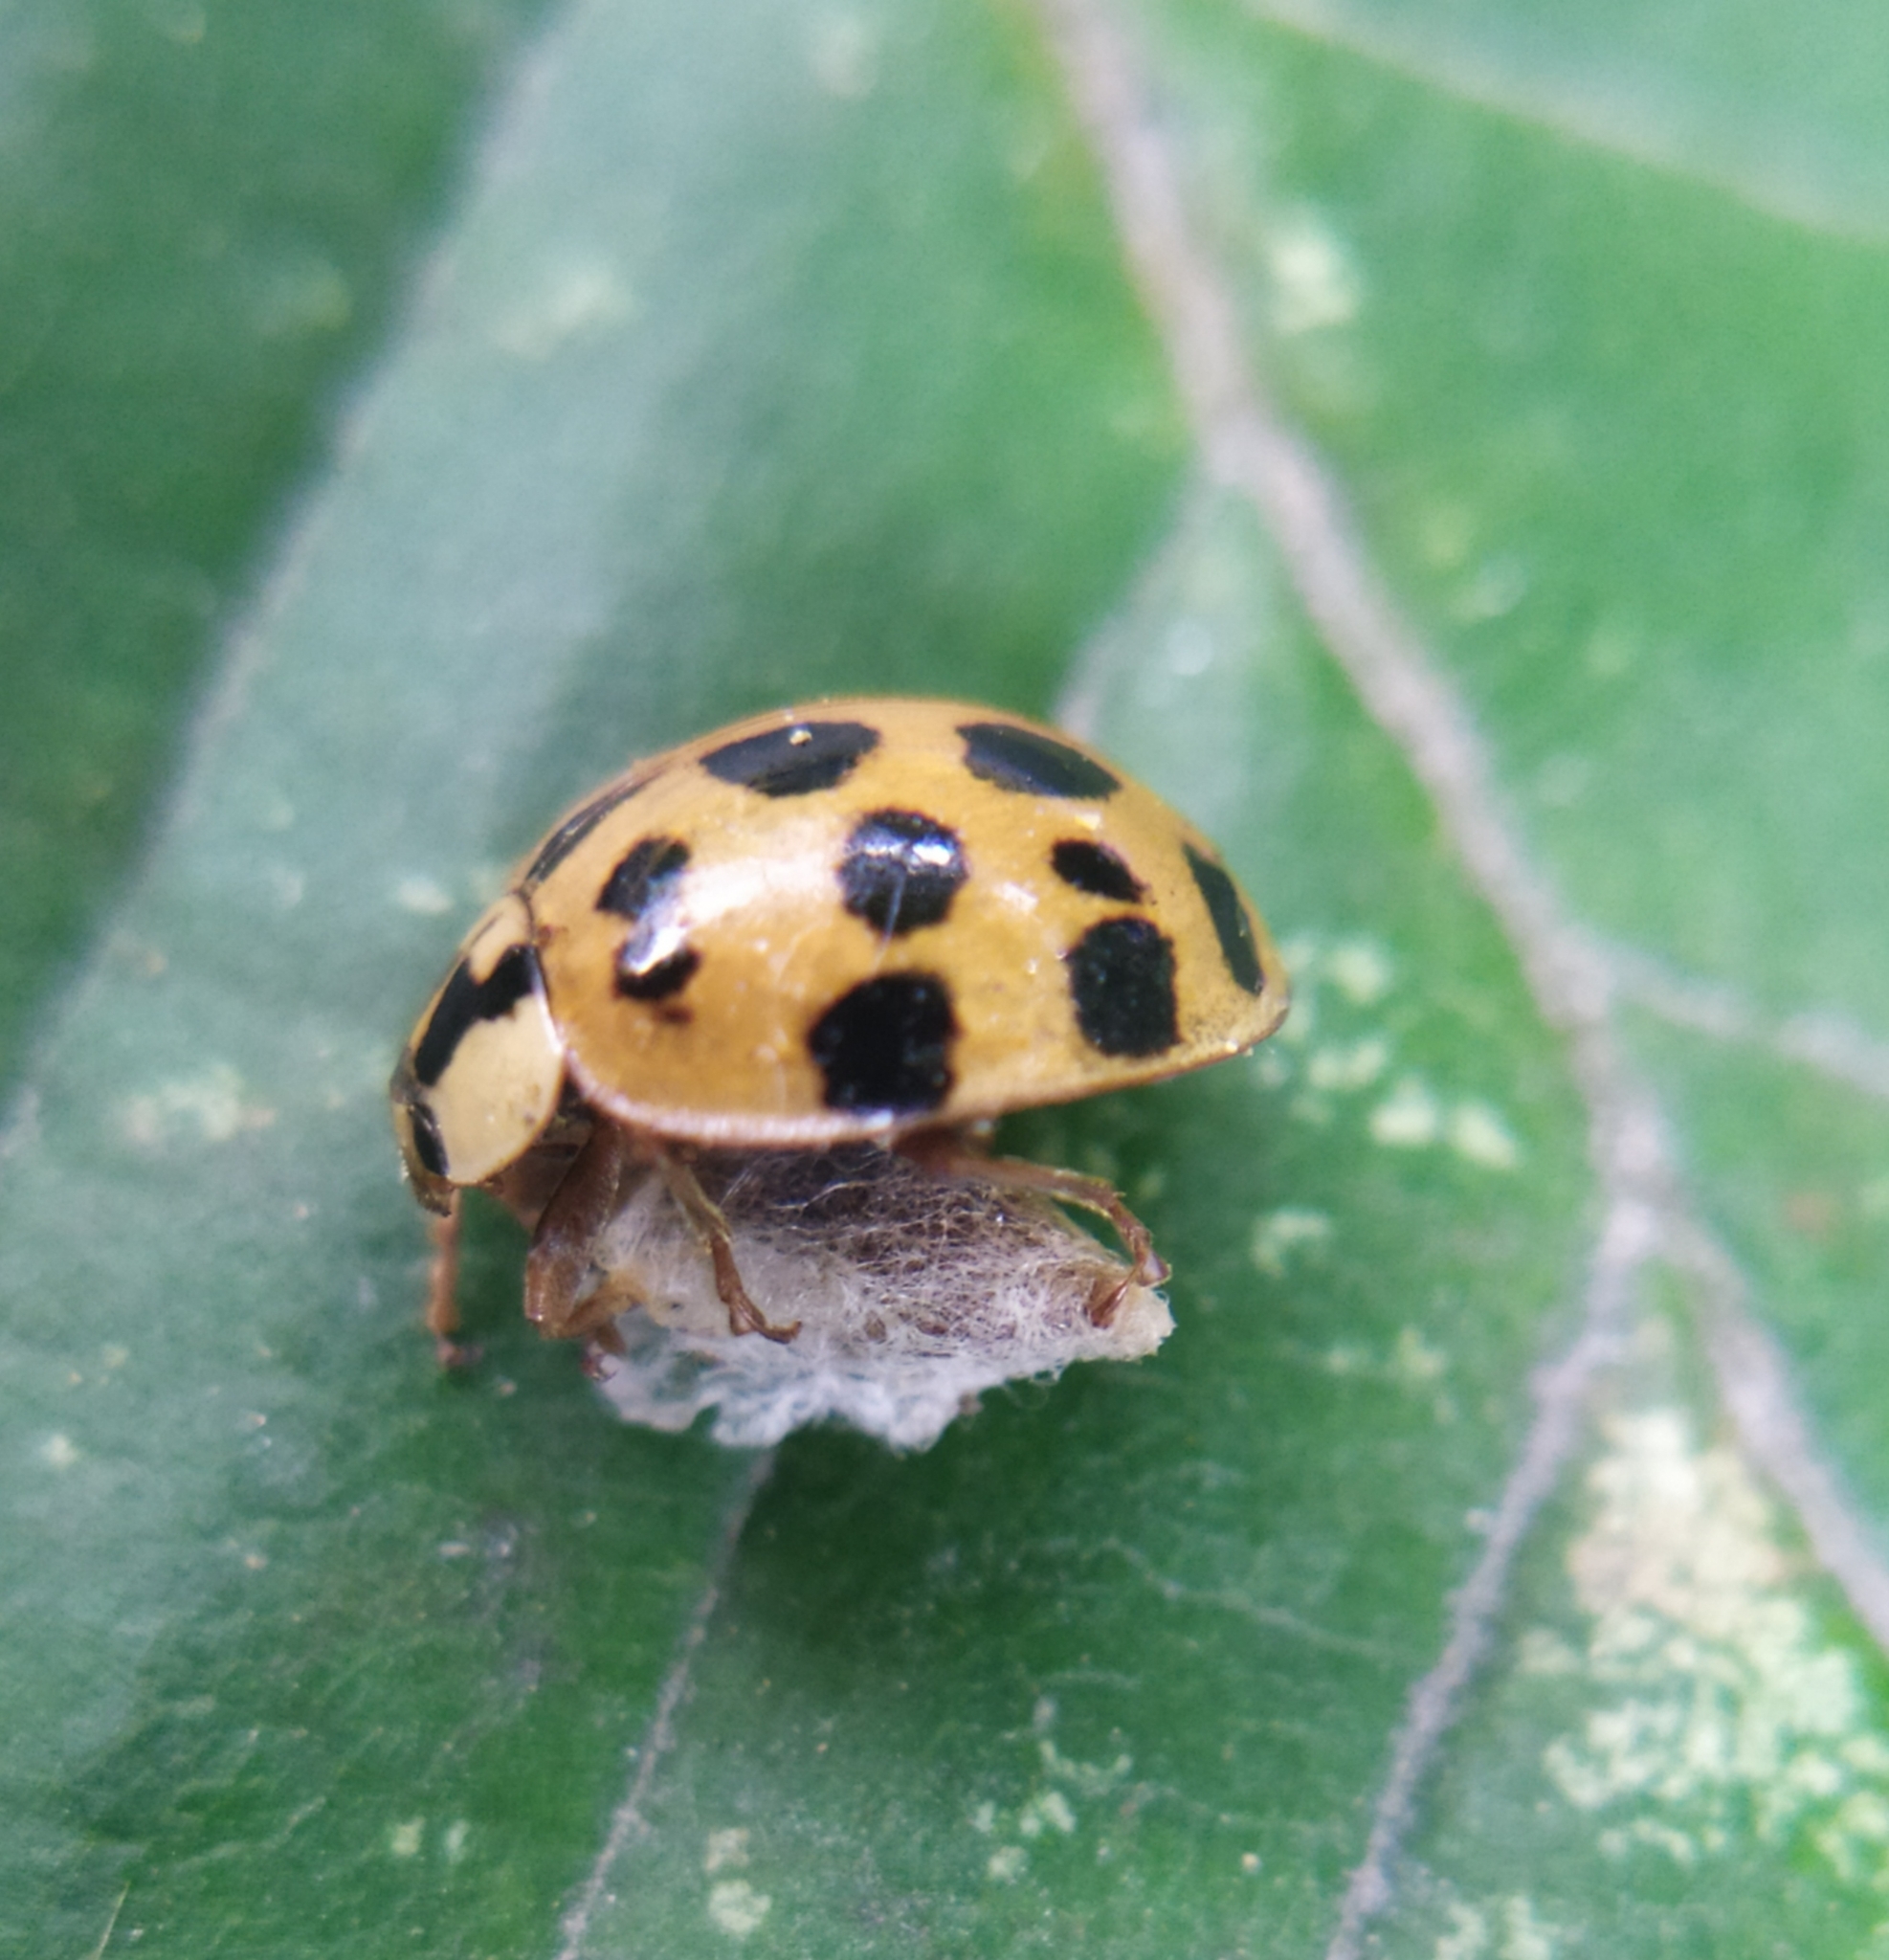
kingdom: Animalia
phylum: Arthropoda
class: Insecta
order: Hymenoptera
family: Braconidae
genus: Dinocampus
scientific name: Dinocampus coccinellae
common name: Braconid wasp
